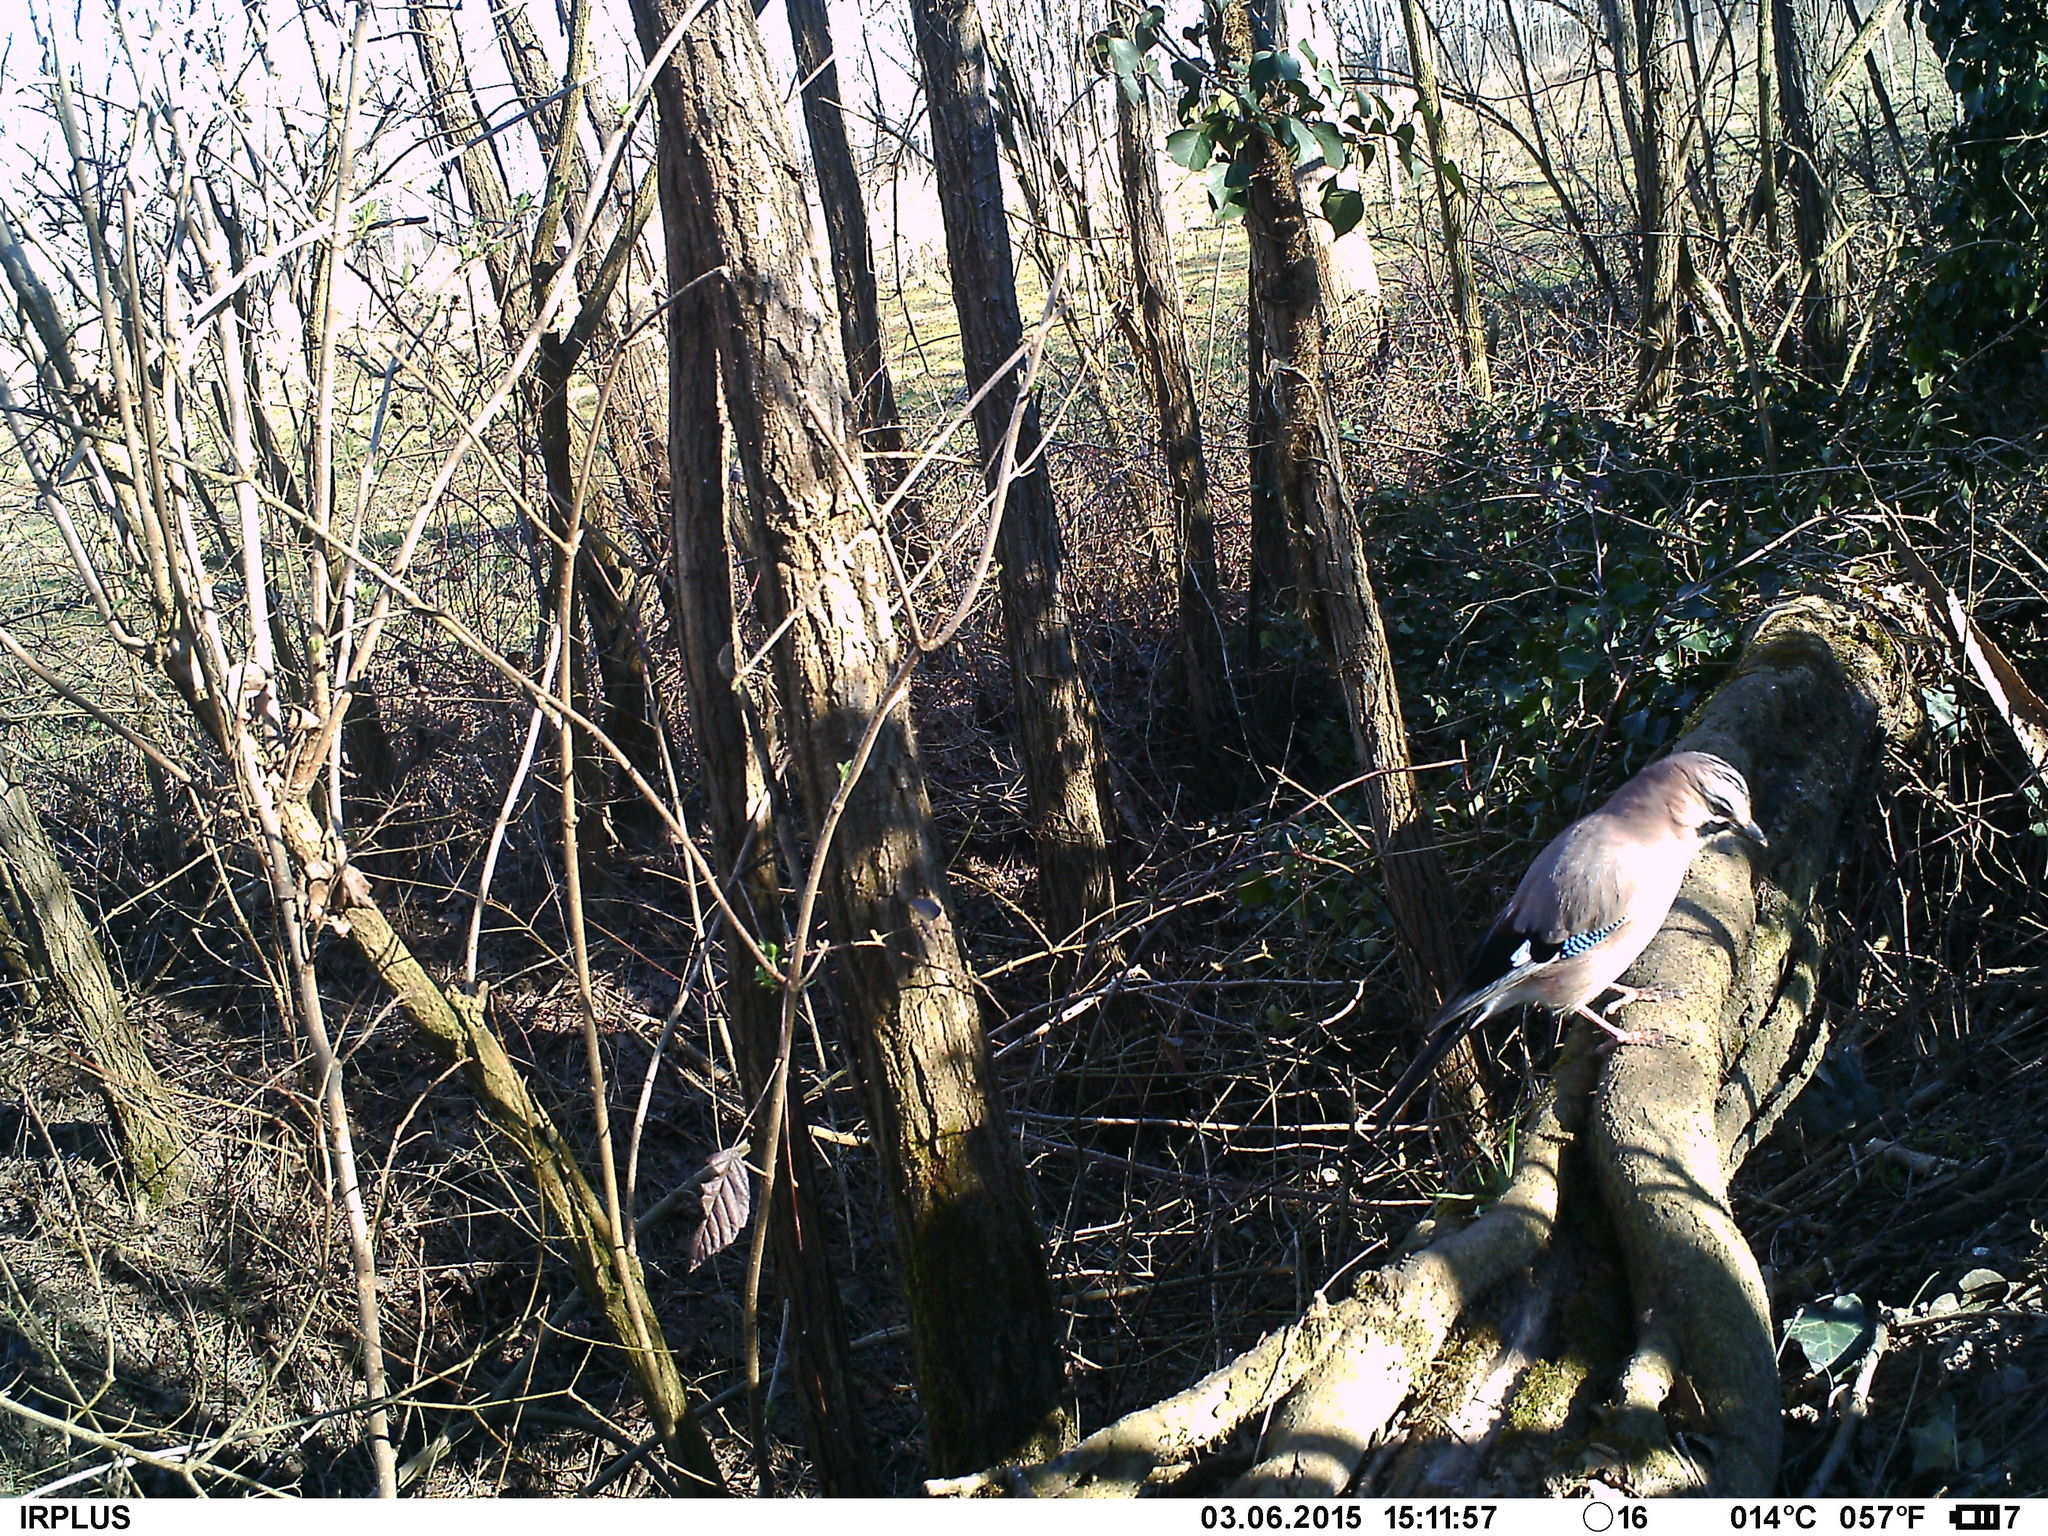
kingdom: Animalia
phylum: Chordata
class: Aves
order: Passeriformes
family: Corvidae
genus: Garrulus
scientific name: Garrulus glandarius
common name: Eurasian jay
